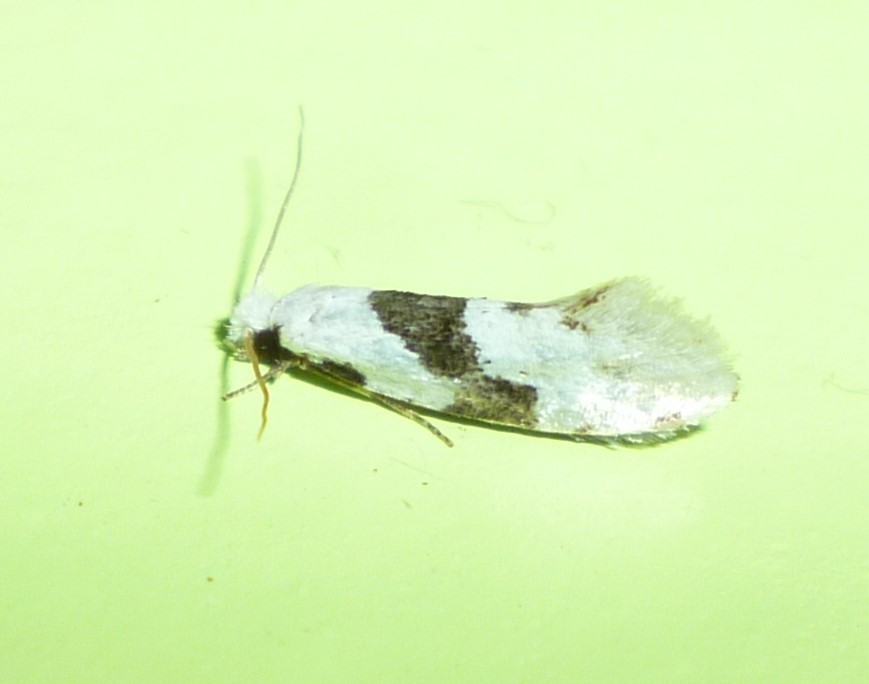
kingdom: Animalia
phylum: Arthropoda
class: Insecta
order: Lepidoptera
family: Tineidae
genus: Nemapogon
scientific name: Nemapogon clematella
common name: Barred white clothes
